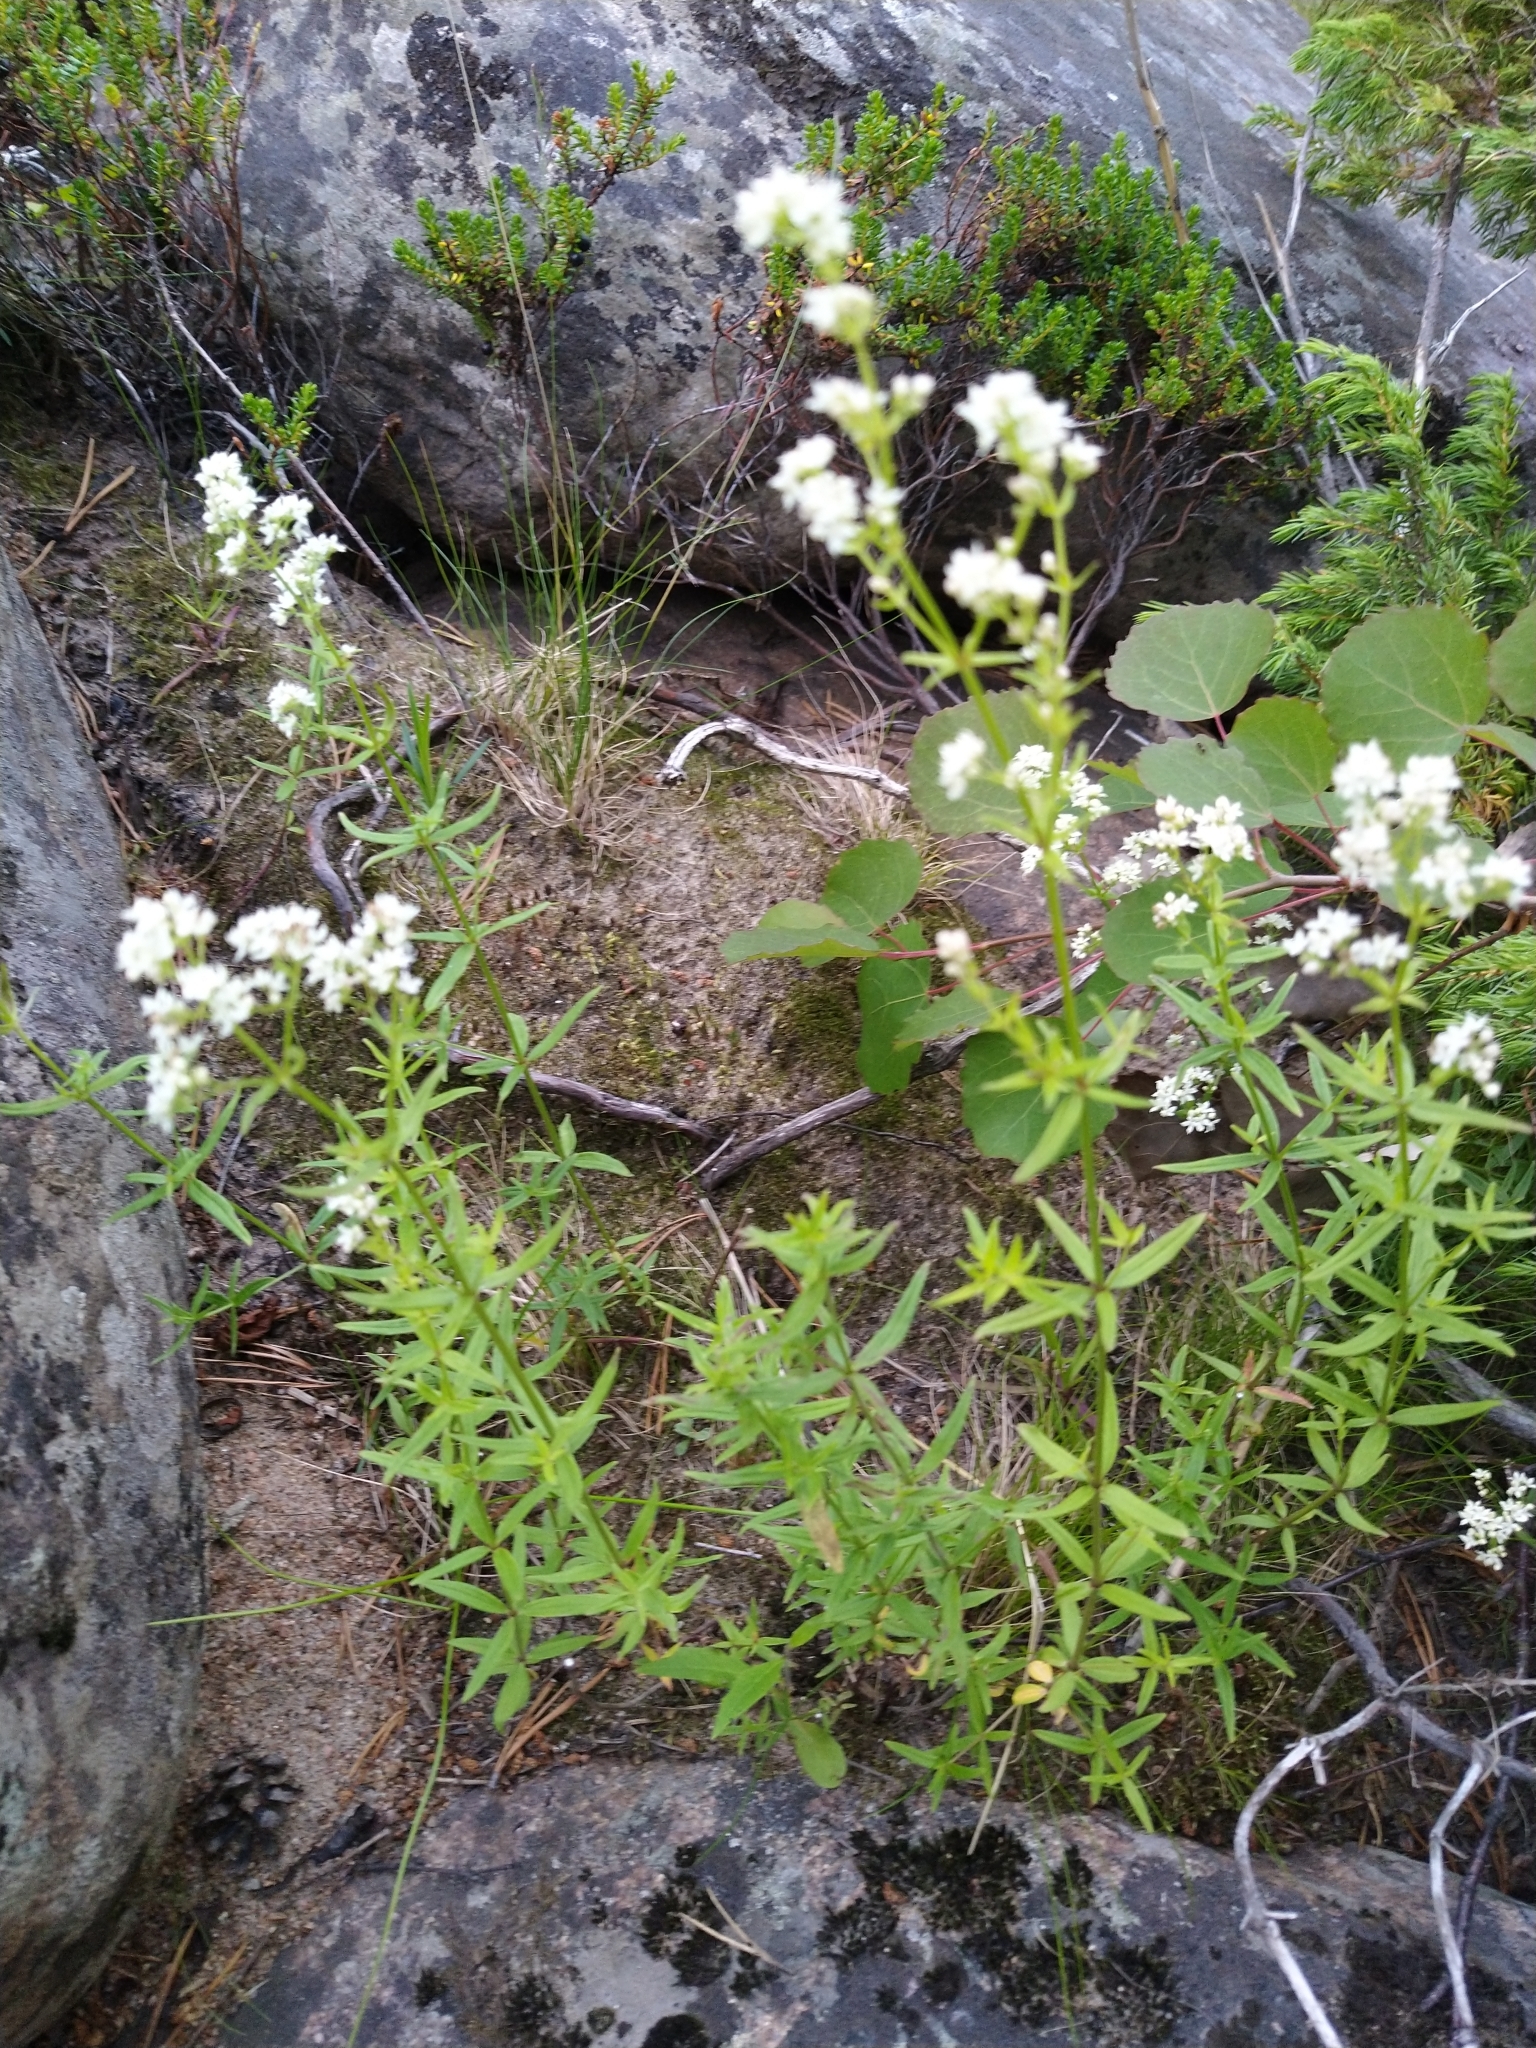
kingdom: Plantae
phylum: Tracheophyta
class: Magnoliopsida
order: Gentianales
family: Rubiaceae
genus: Galium
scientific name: Galium boreale
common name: Northern bedstraw
